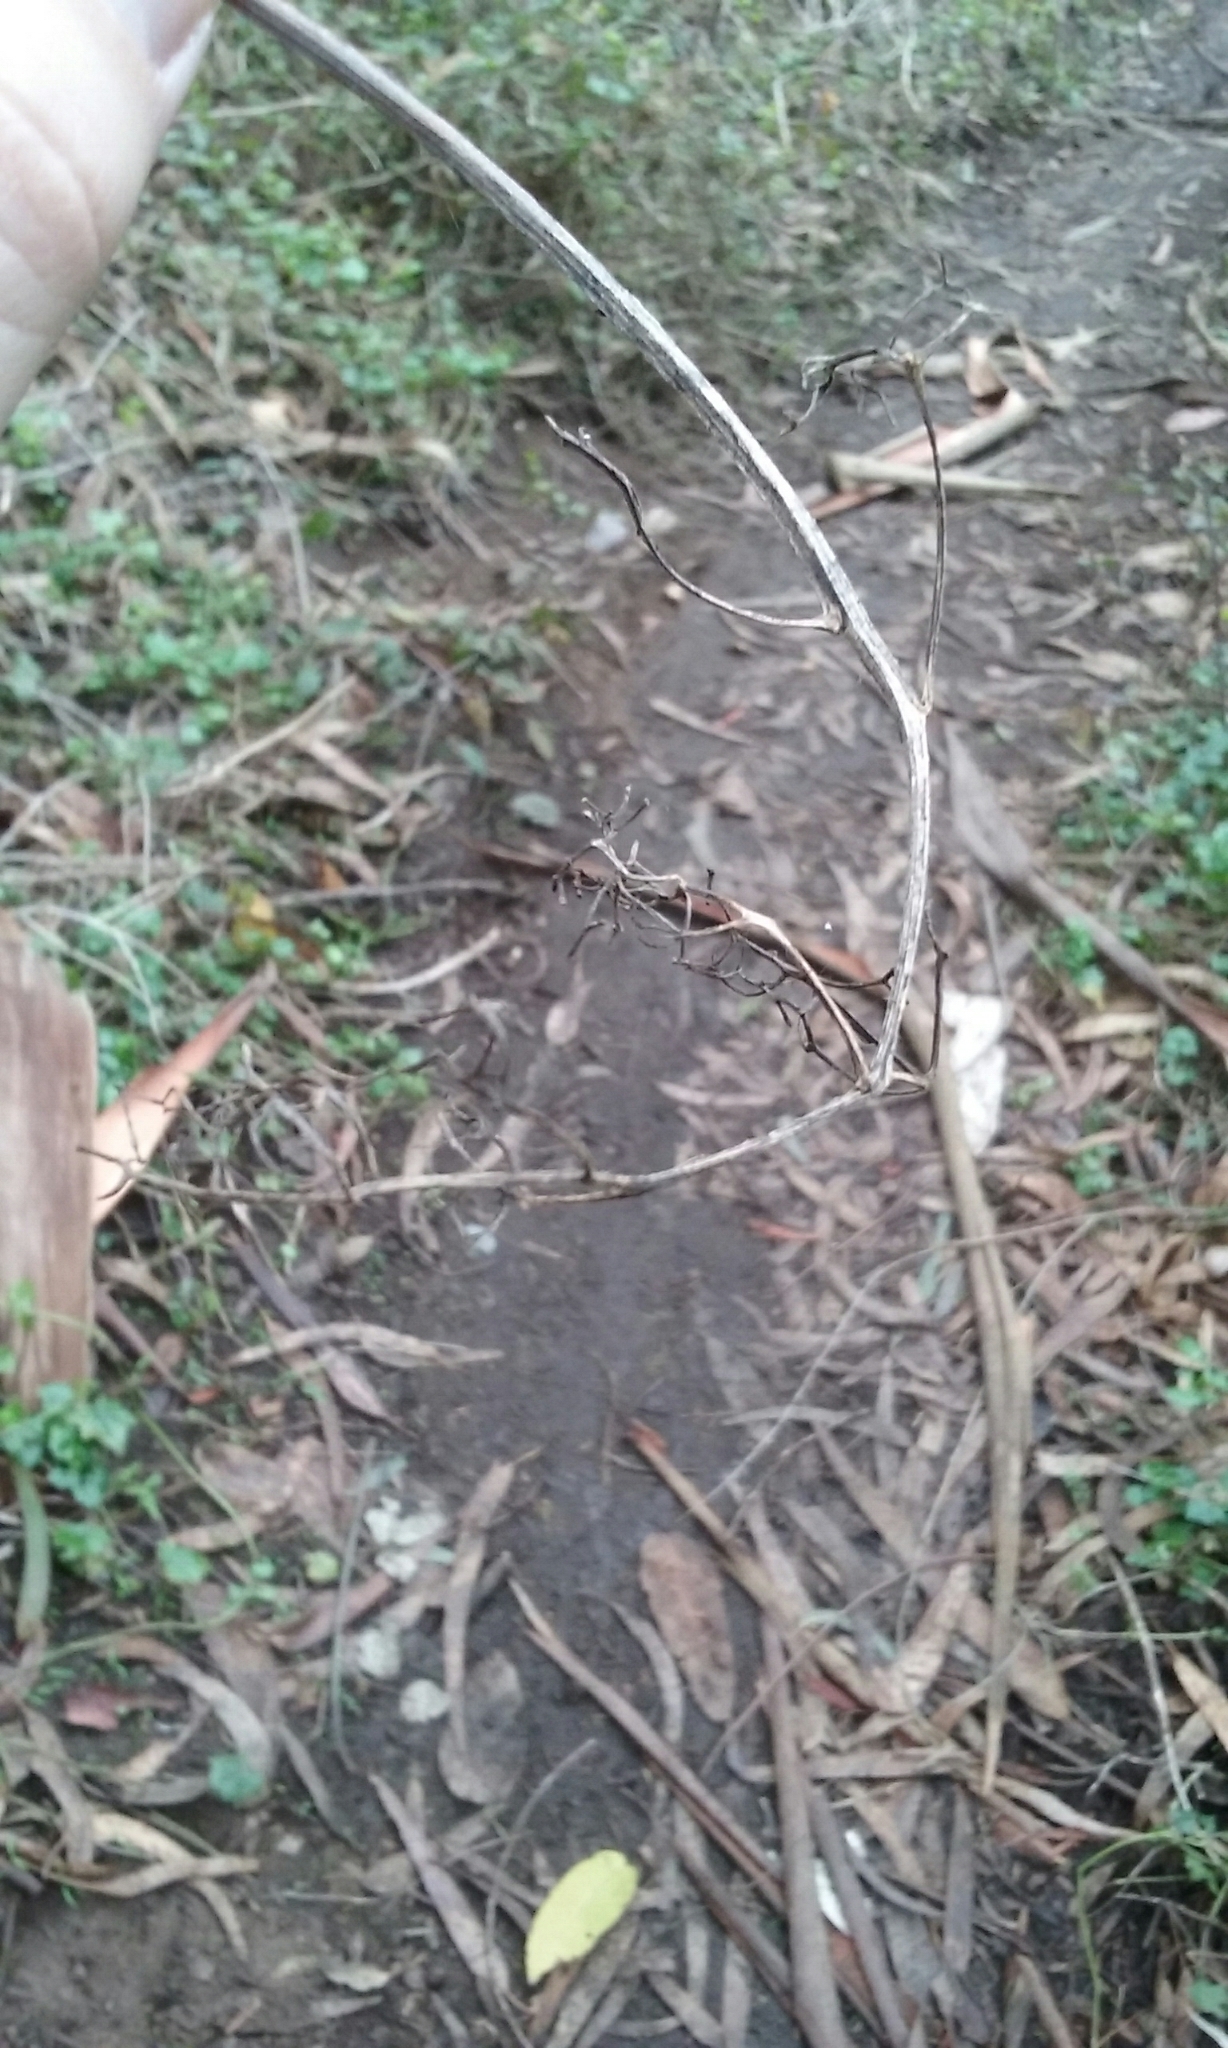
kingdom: Plantae
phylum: Tracheophyta
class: Magnoliopsida
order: Dipsacales
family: Viburnaceae
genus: Sambucus
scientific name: Sambucus racemosa
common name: Red-berried elder
